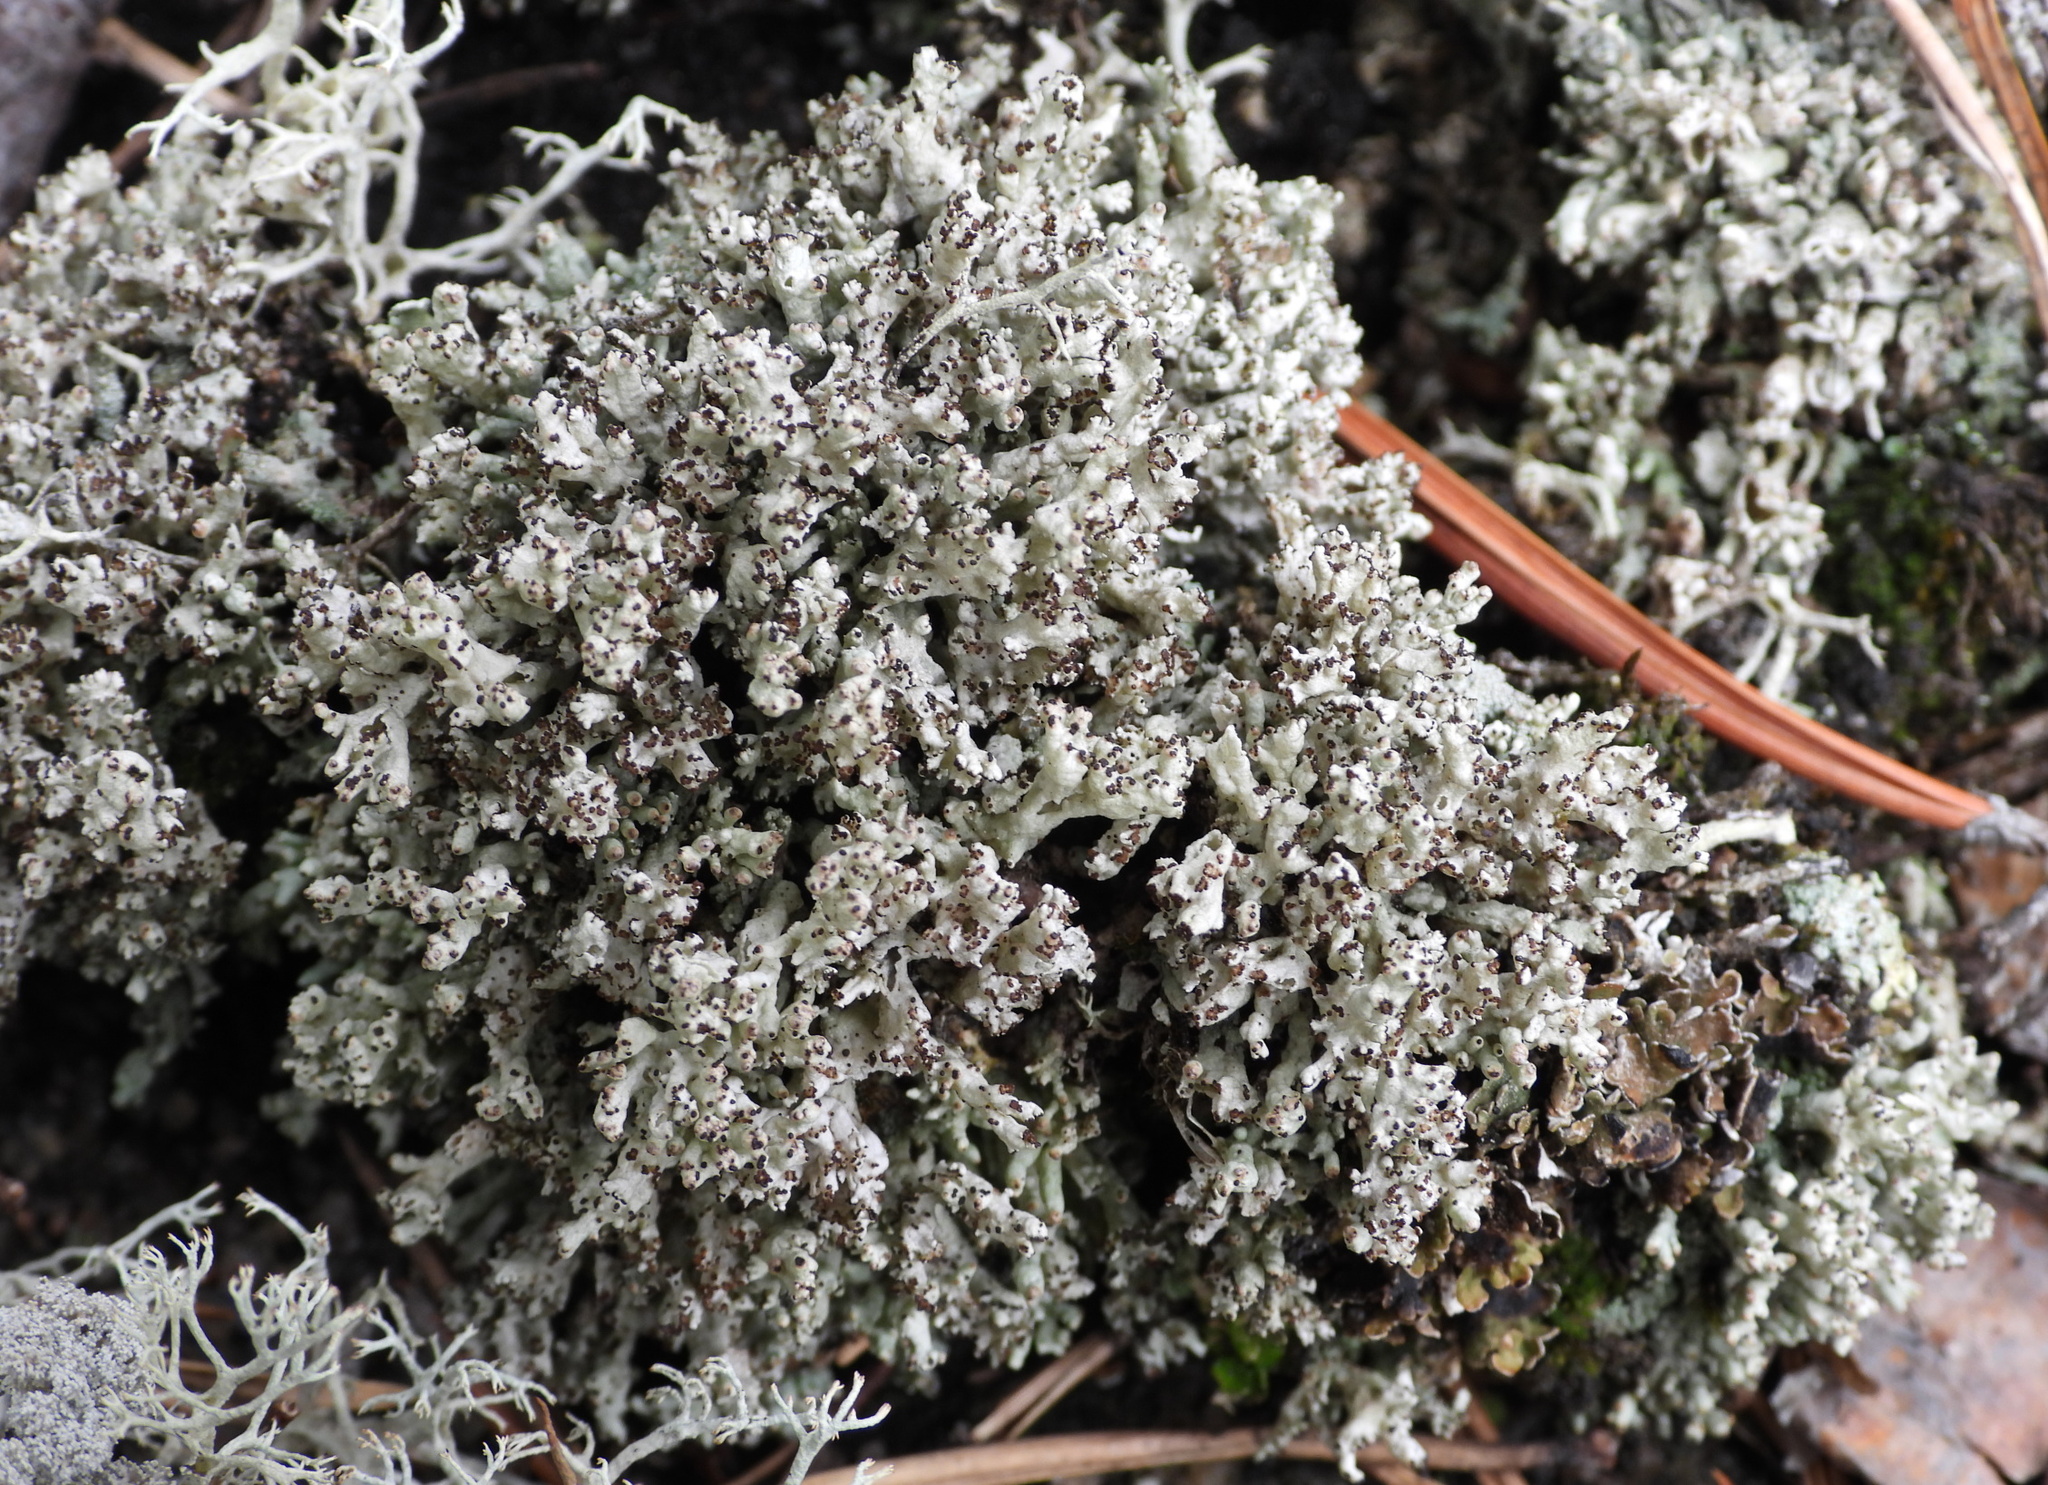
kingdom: Fungi
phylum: Ascomycota
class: Lecanoromycetes
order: Lecanorales
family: Cladoniaceae
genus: Pycnothelia
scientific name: Pycnothelia papillaria
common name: Nipple lichen
